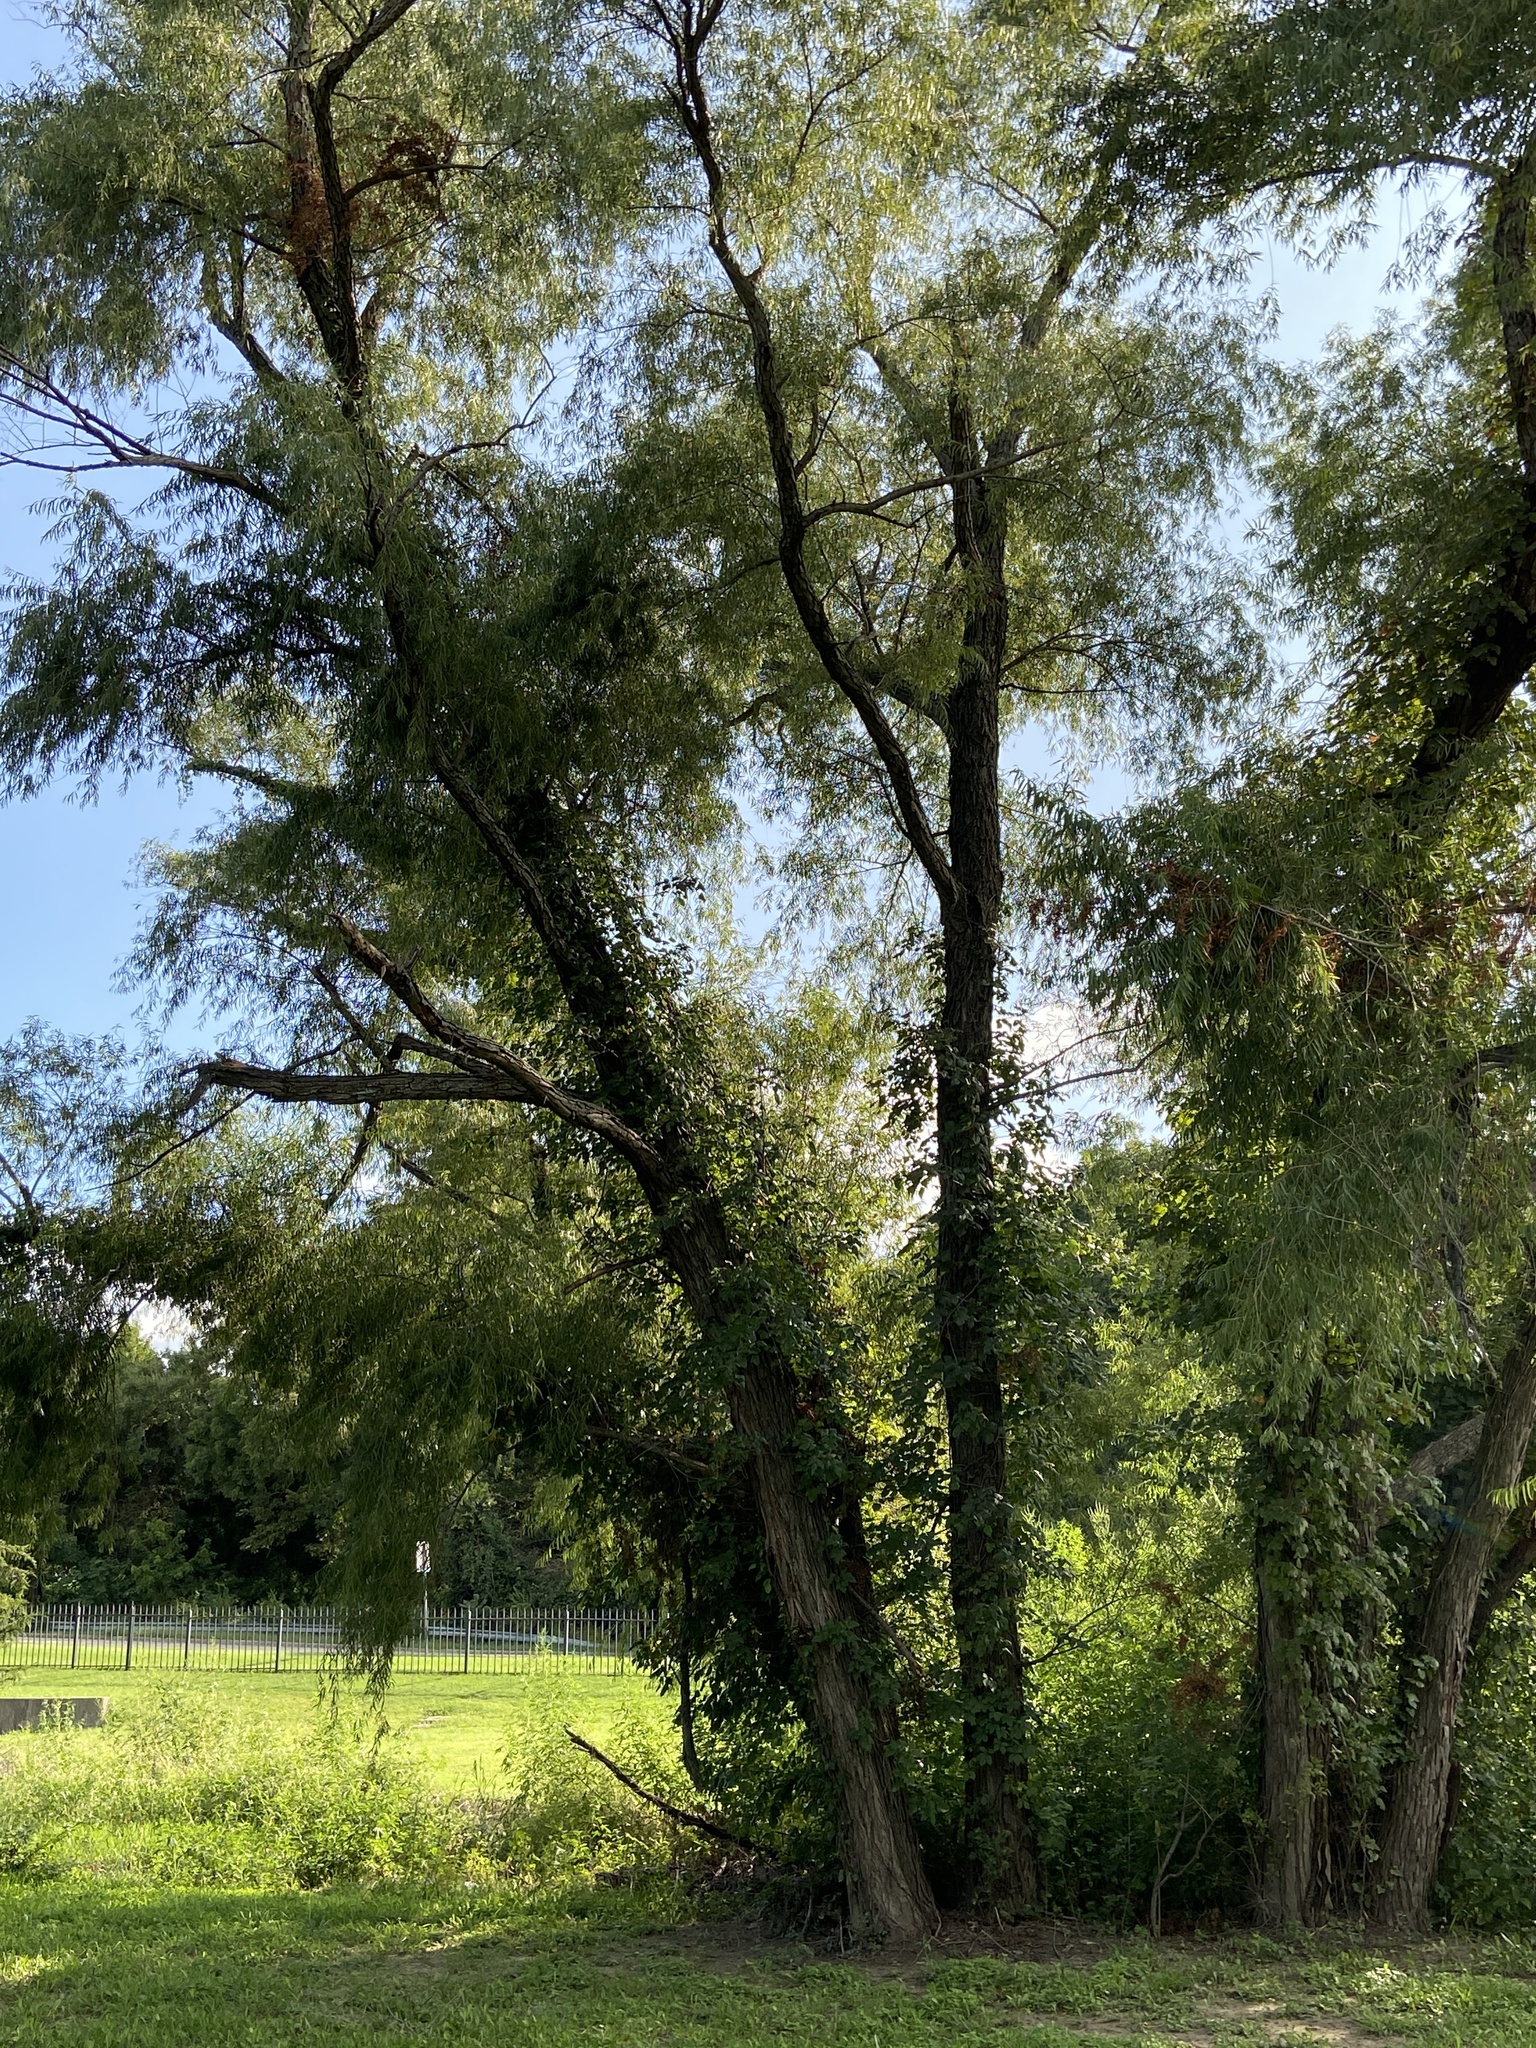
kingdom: Plantae
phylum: Tracheophyta
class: Magnoliopsida
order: Malpighiales
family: Salicaceae
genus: Salix
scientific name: Salix nigra
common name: Black willow
